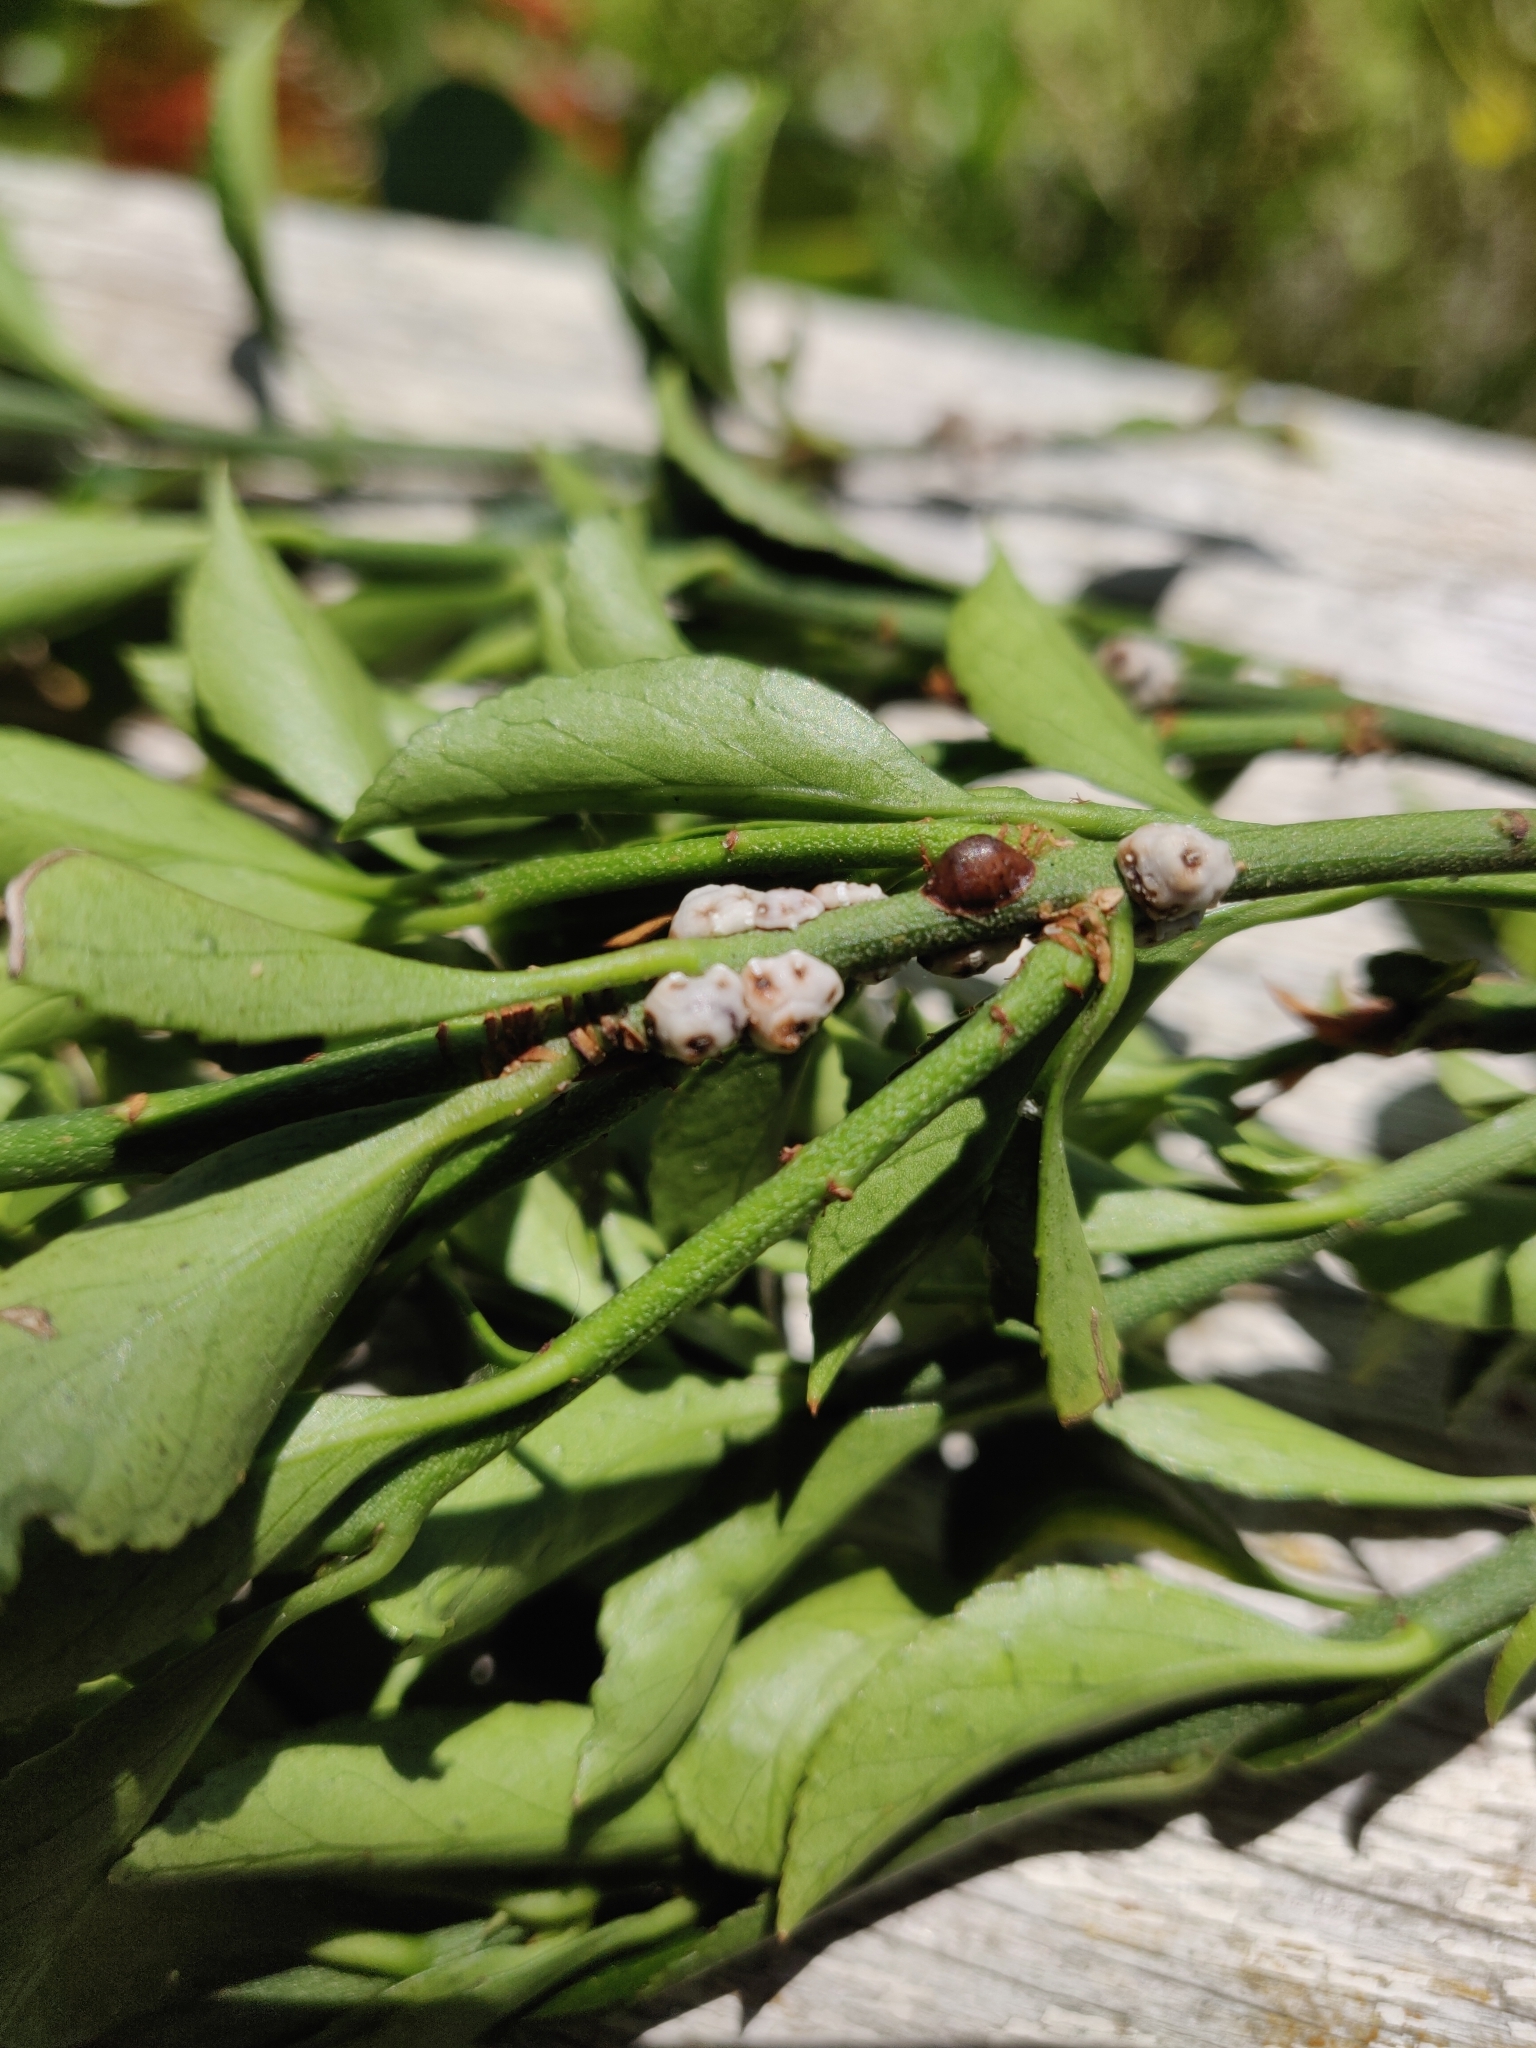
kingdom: Animalia
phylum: Arthropoda
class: Insecta
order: Hemiptera
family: Coccidae
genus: Ceroplastes
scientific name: Ceroplastes sinensis
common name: Hard wax scale
